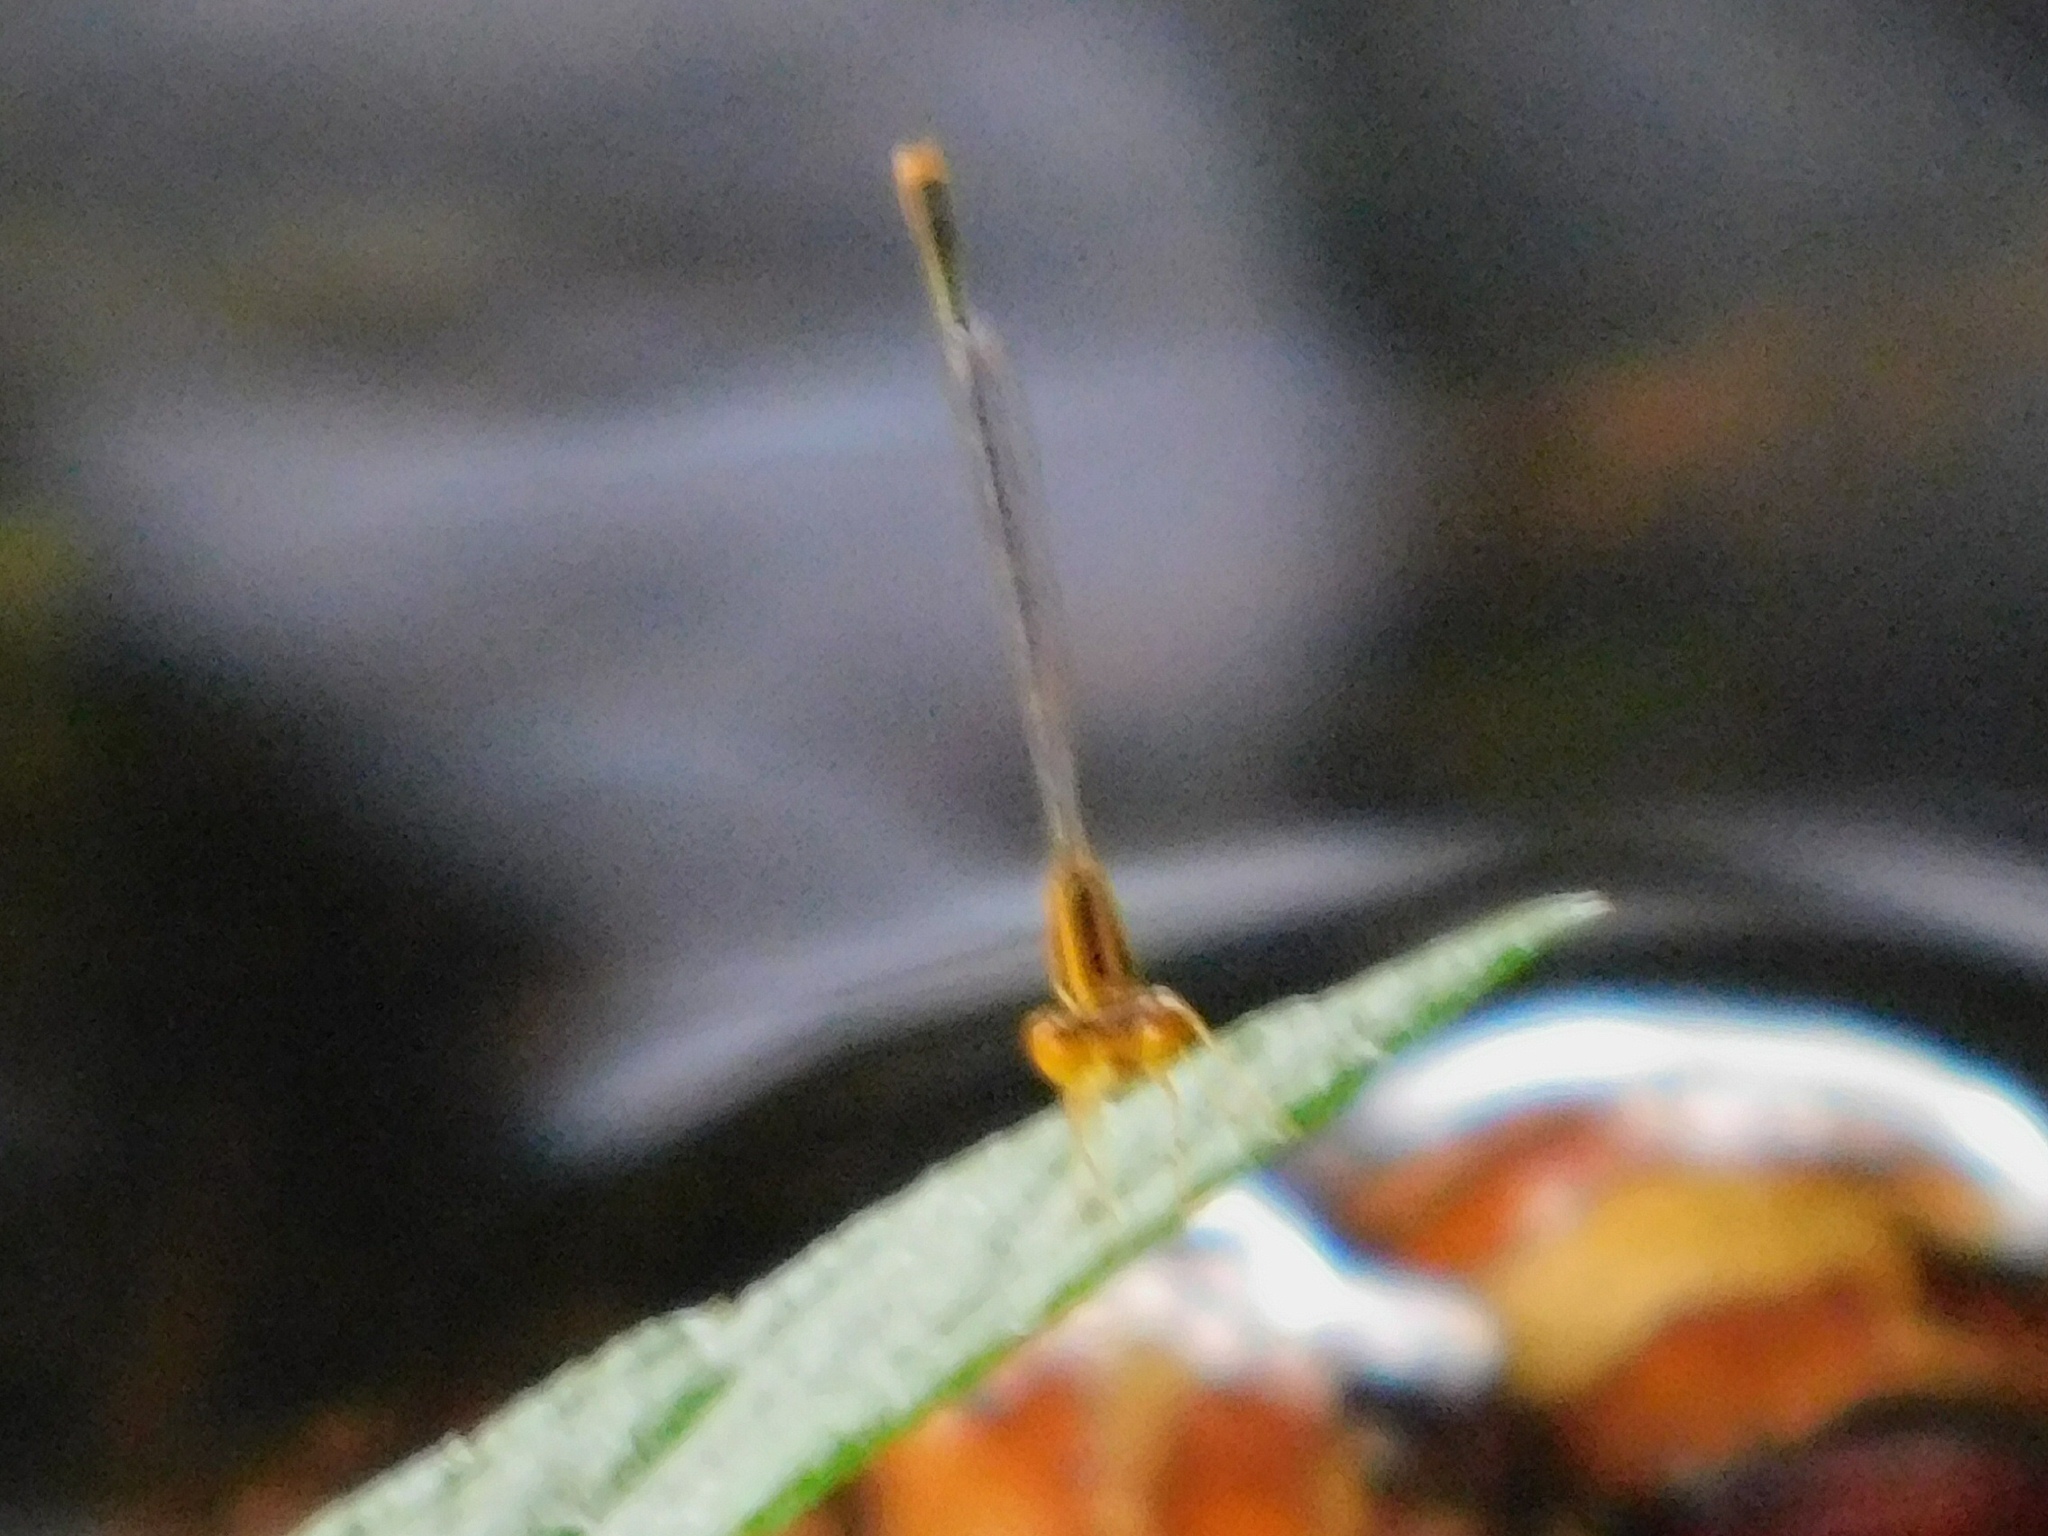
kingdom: Animalia
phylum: Arthropoda
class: Insecta
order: Odonata
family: Coenagrionidae
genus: Enallagma
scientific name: Enallagma pollutum
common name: Florida bluet
